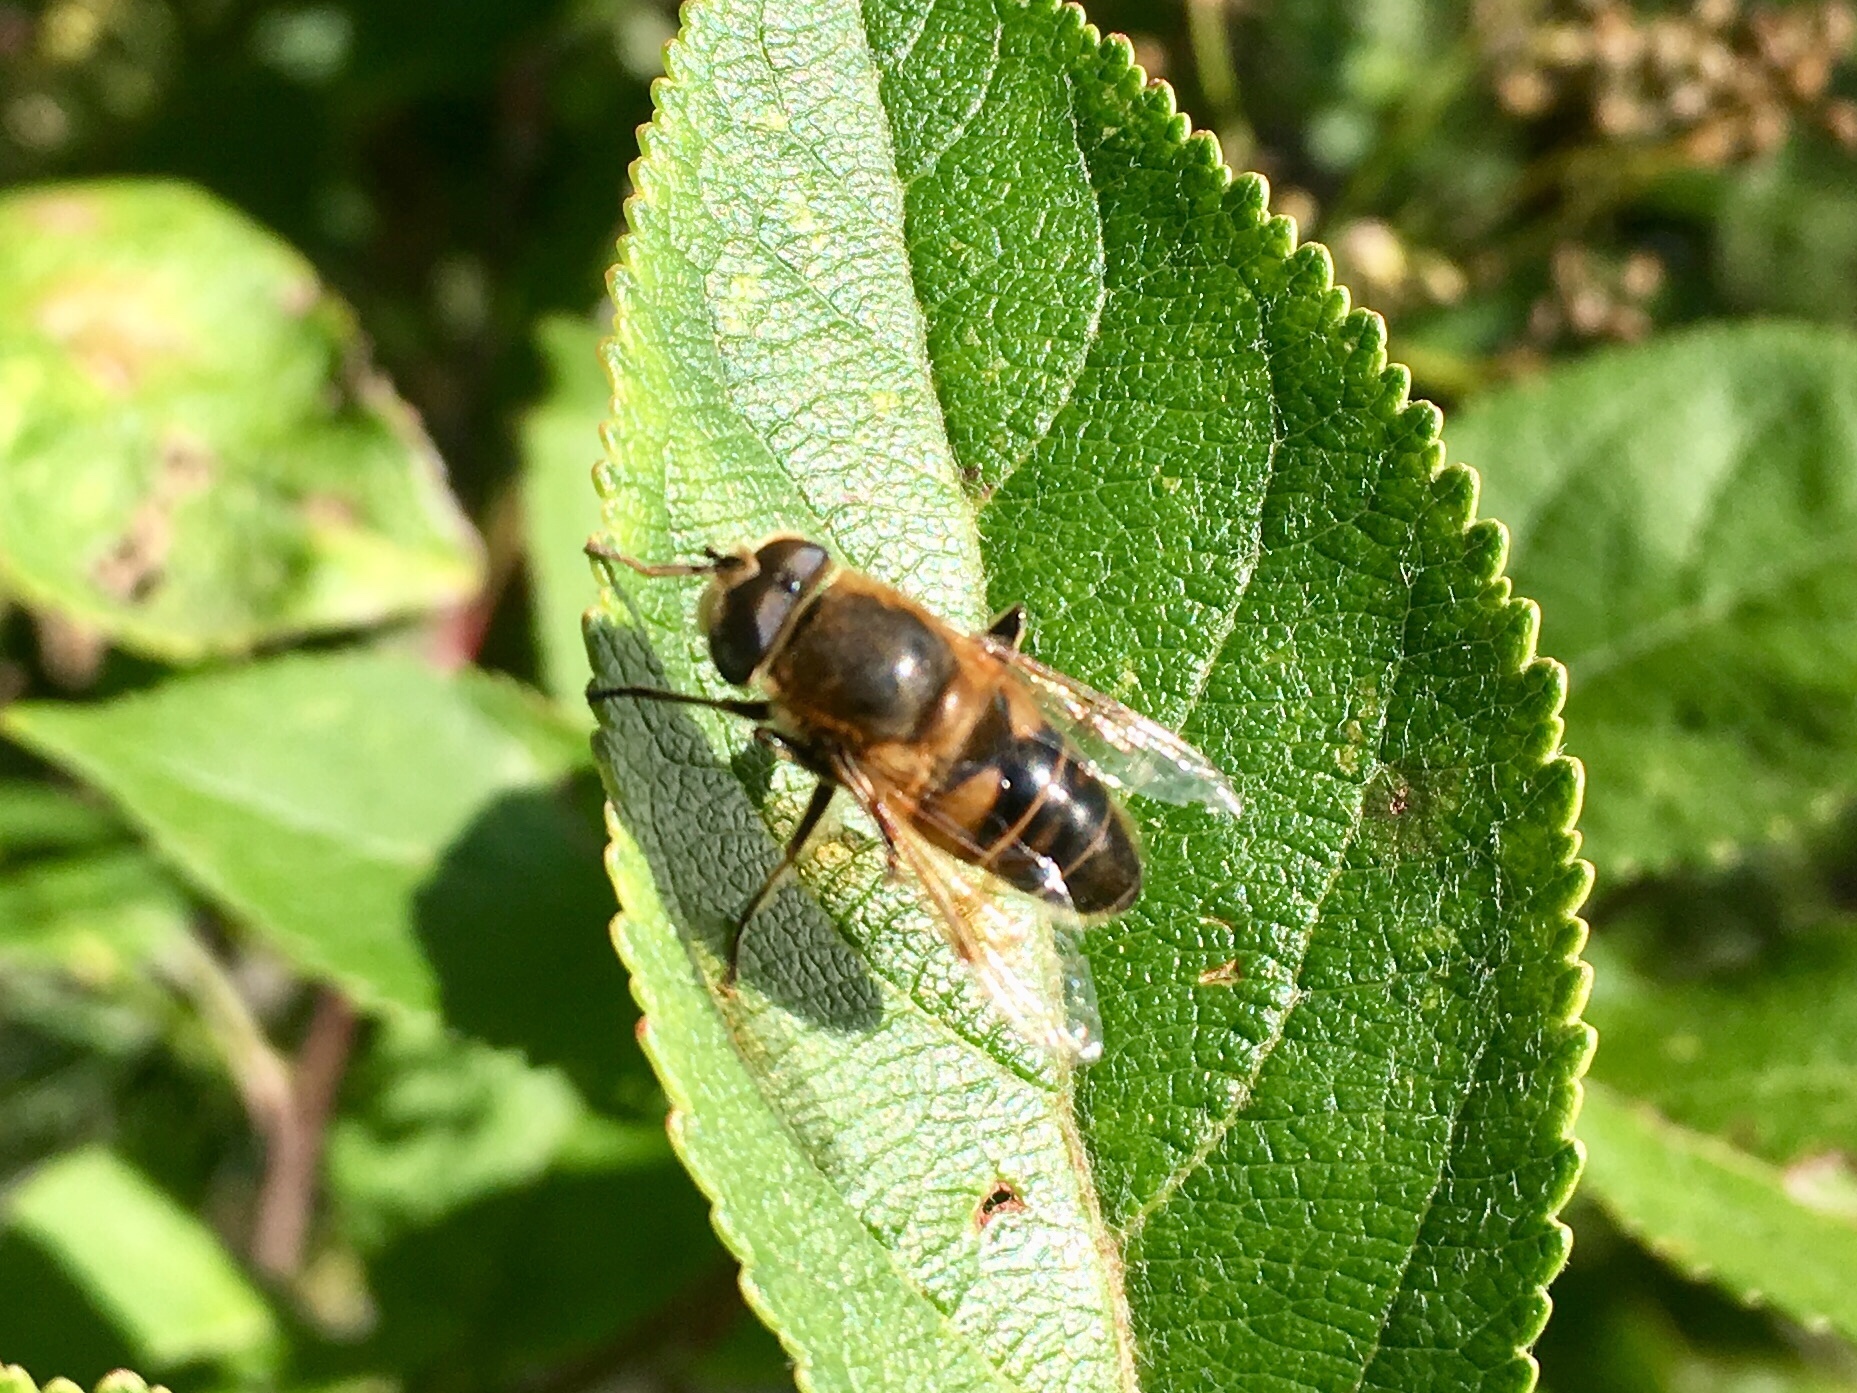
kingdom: Animalia
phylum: Arthropoda
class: Insecta
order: Diptera
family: Syrphidae
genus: Eristalis
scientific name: Eristalis tenax
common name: Drone fly
